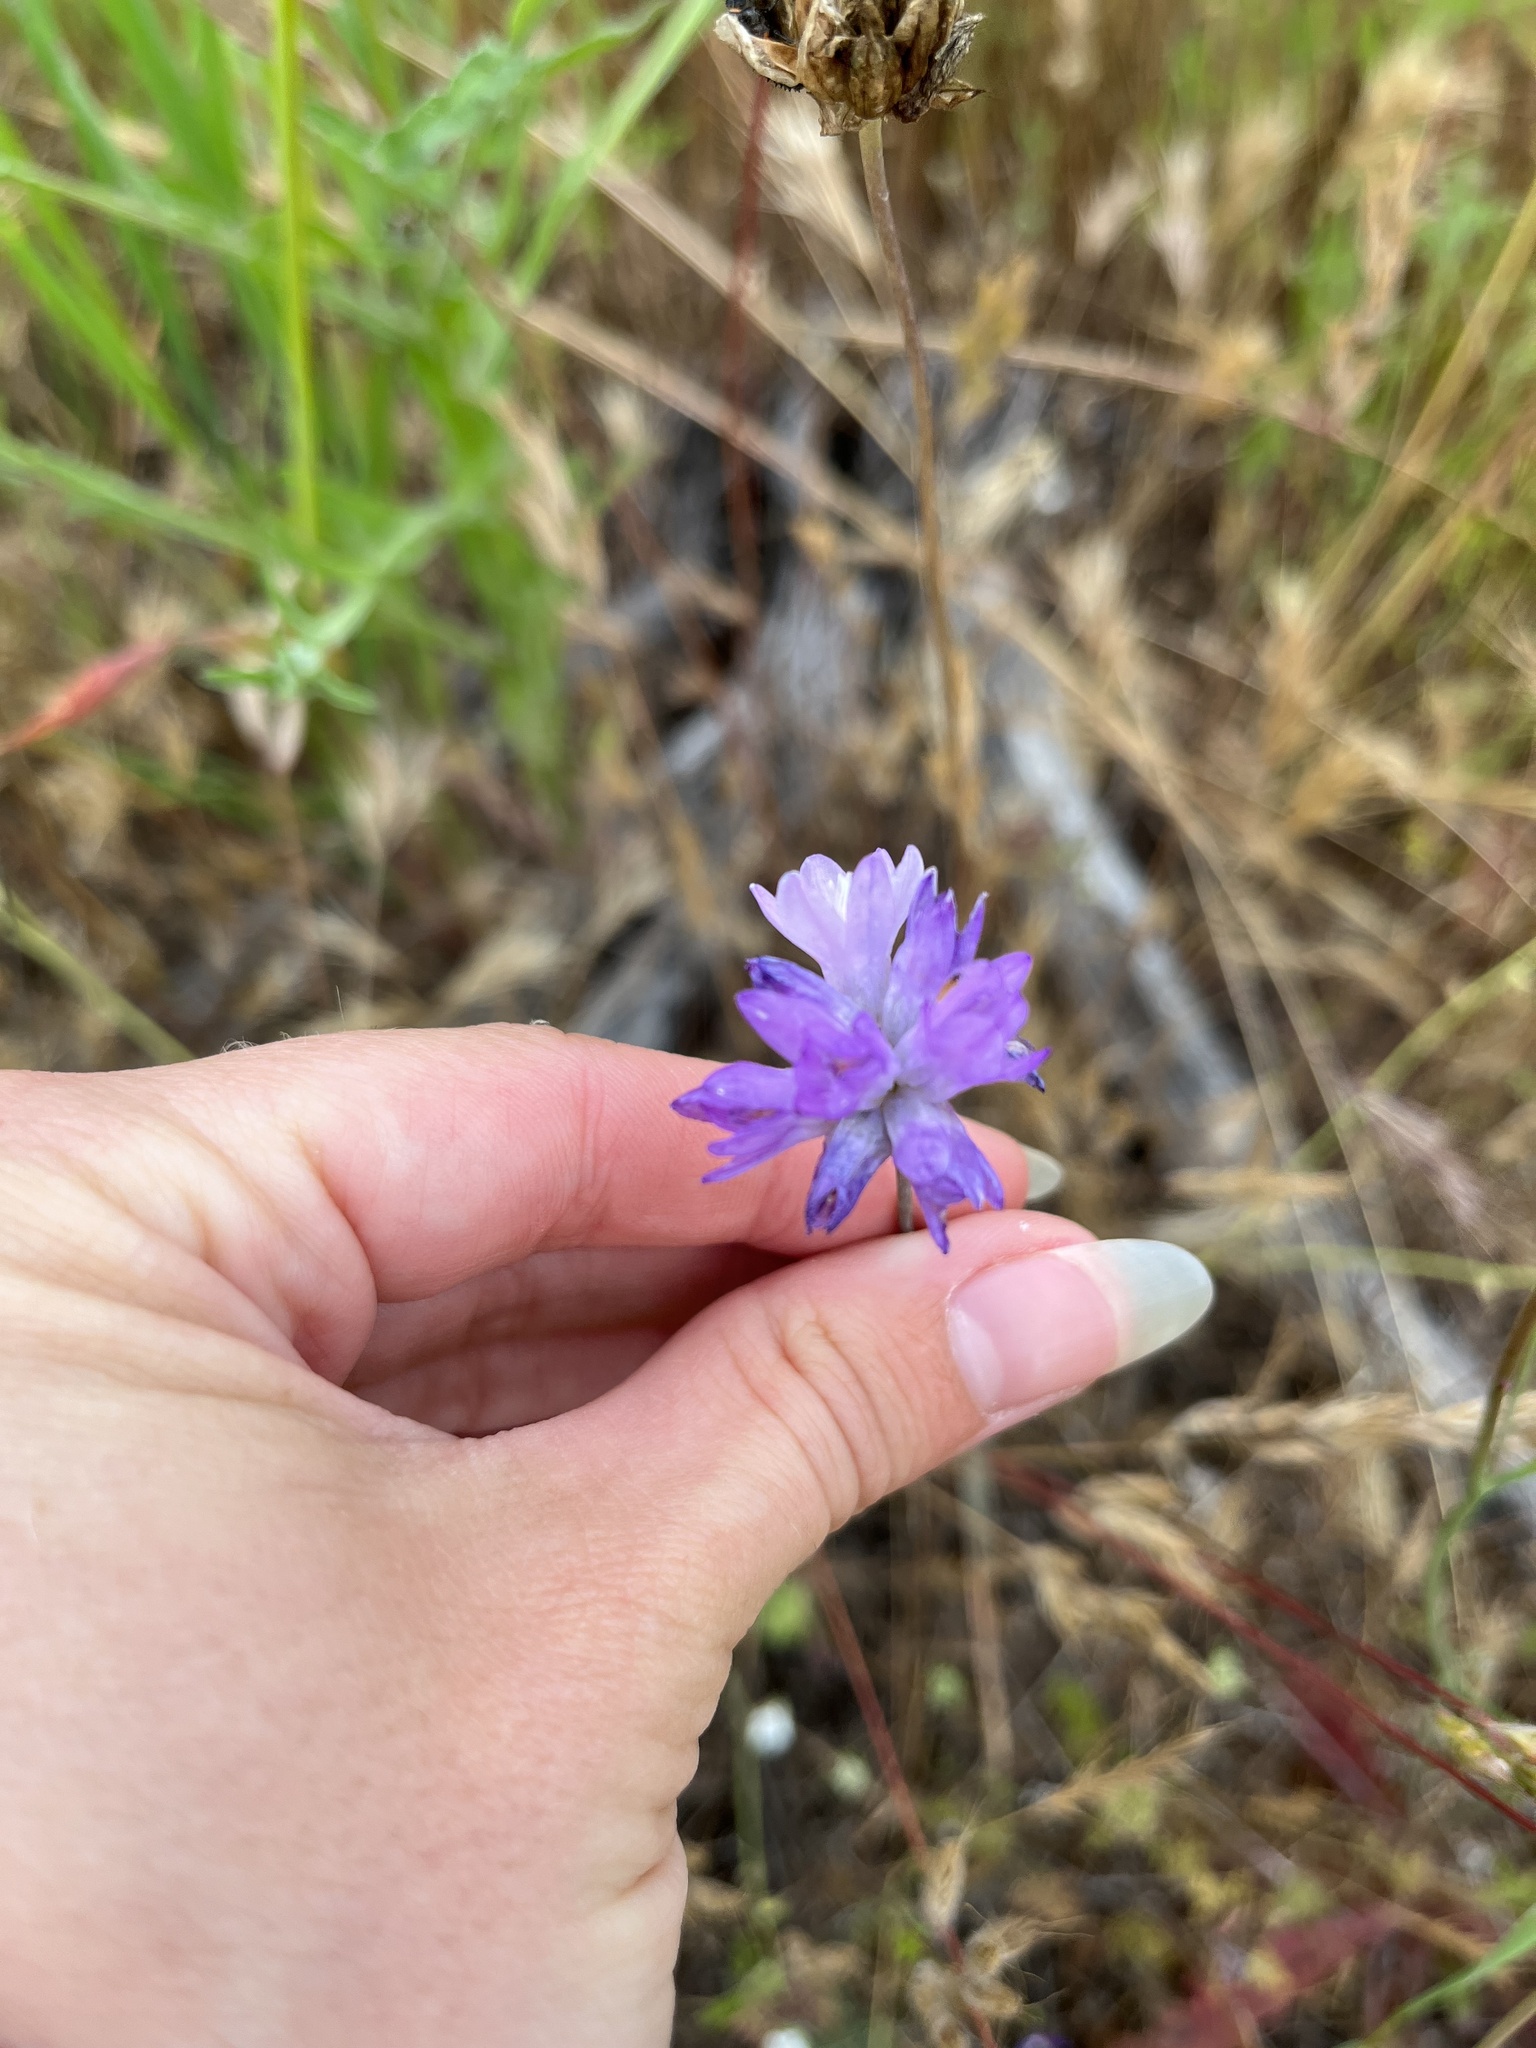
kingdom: Plantae
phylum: Tracheophyta
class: Liliopsida
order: Asparagales
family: Asparagaceae
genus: Dipterostemon
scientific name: Dipterostemon capitatus
